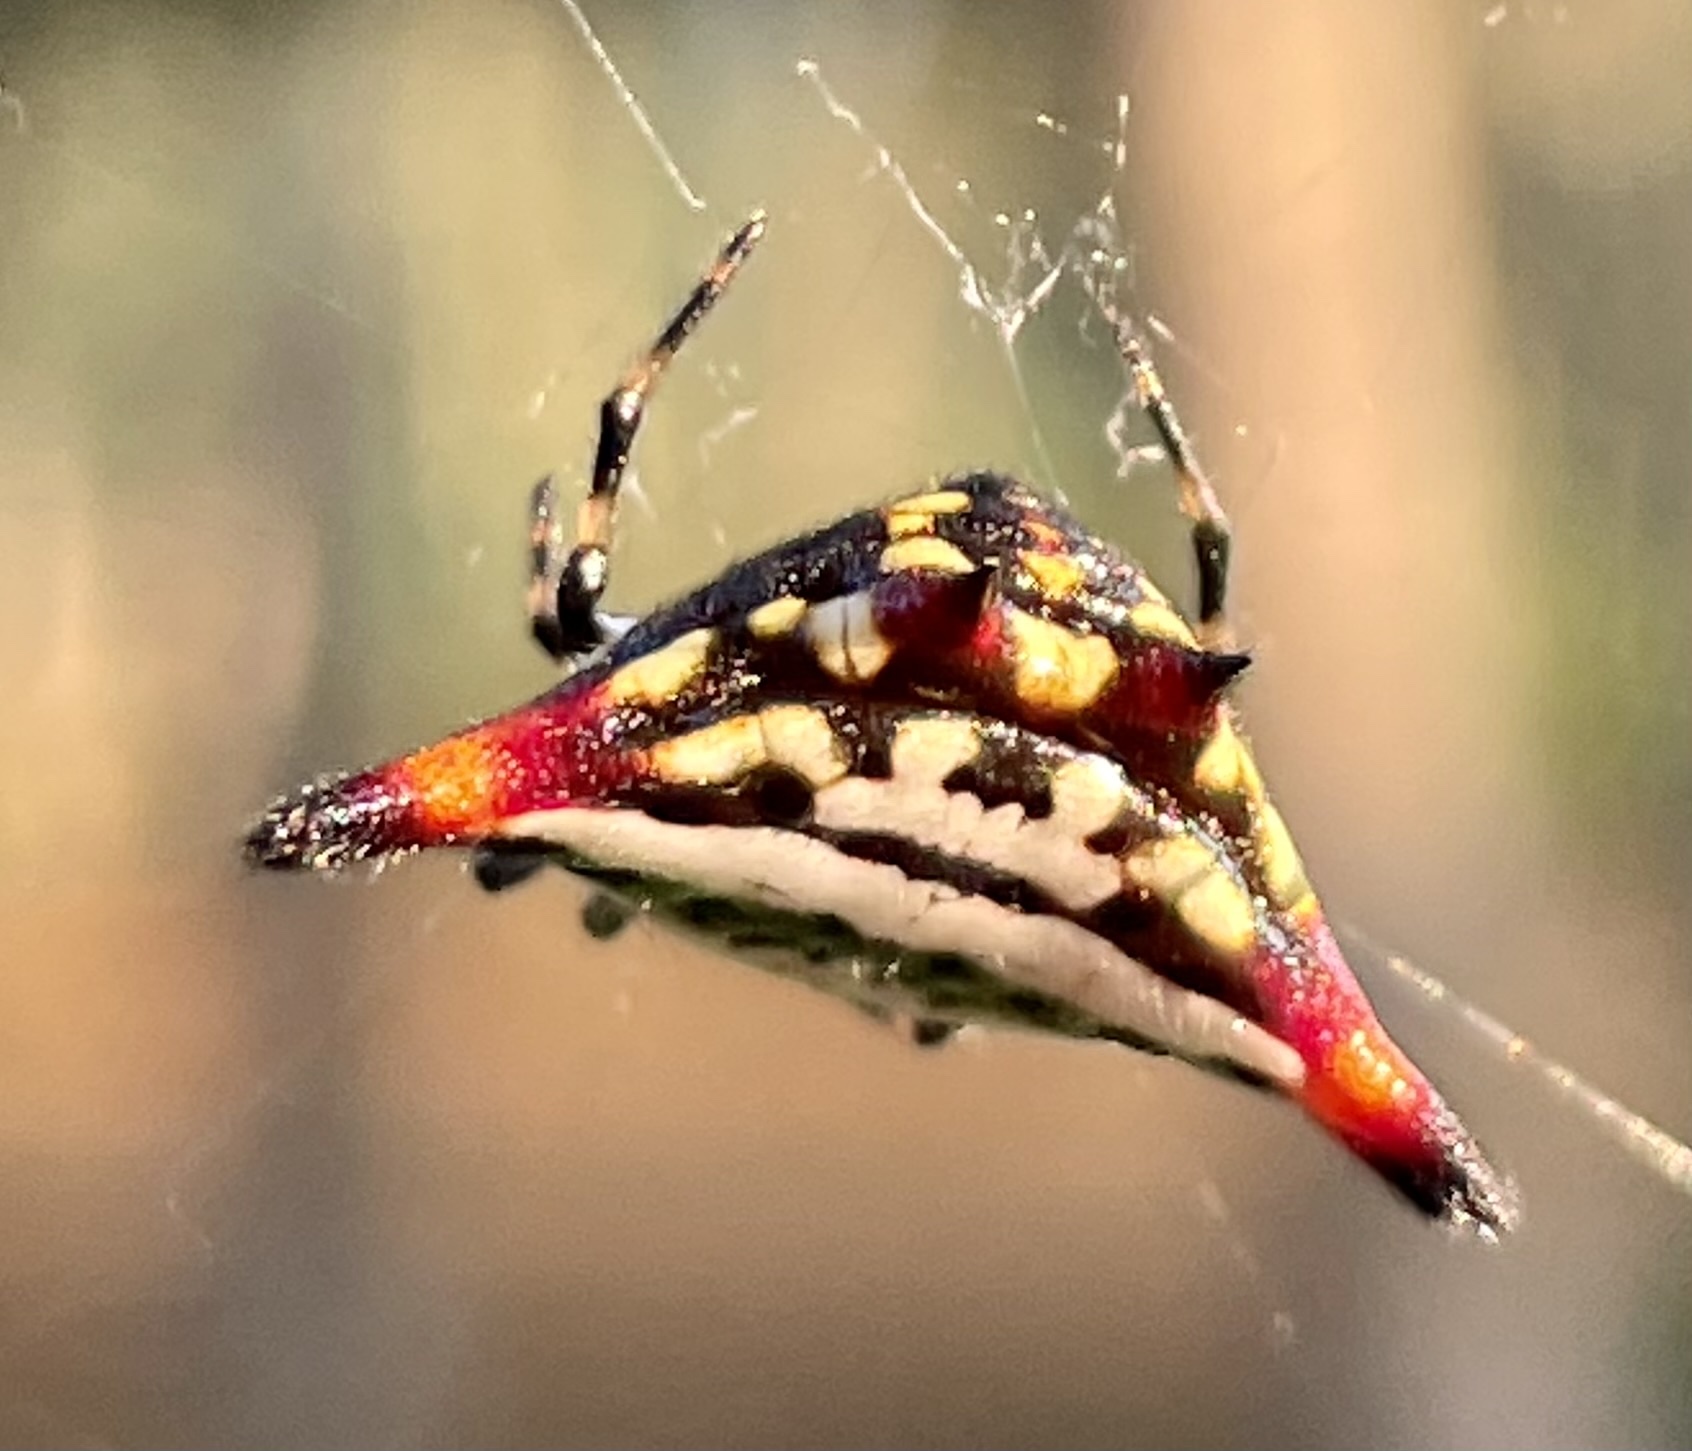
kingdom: Animalia
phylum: Arthropoda
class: Arachnida
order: Araneae
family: Araneidae
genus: Gasteracantha
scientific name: Gasteracantha geminata
